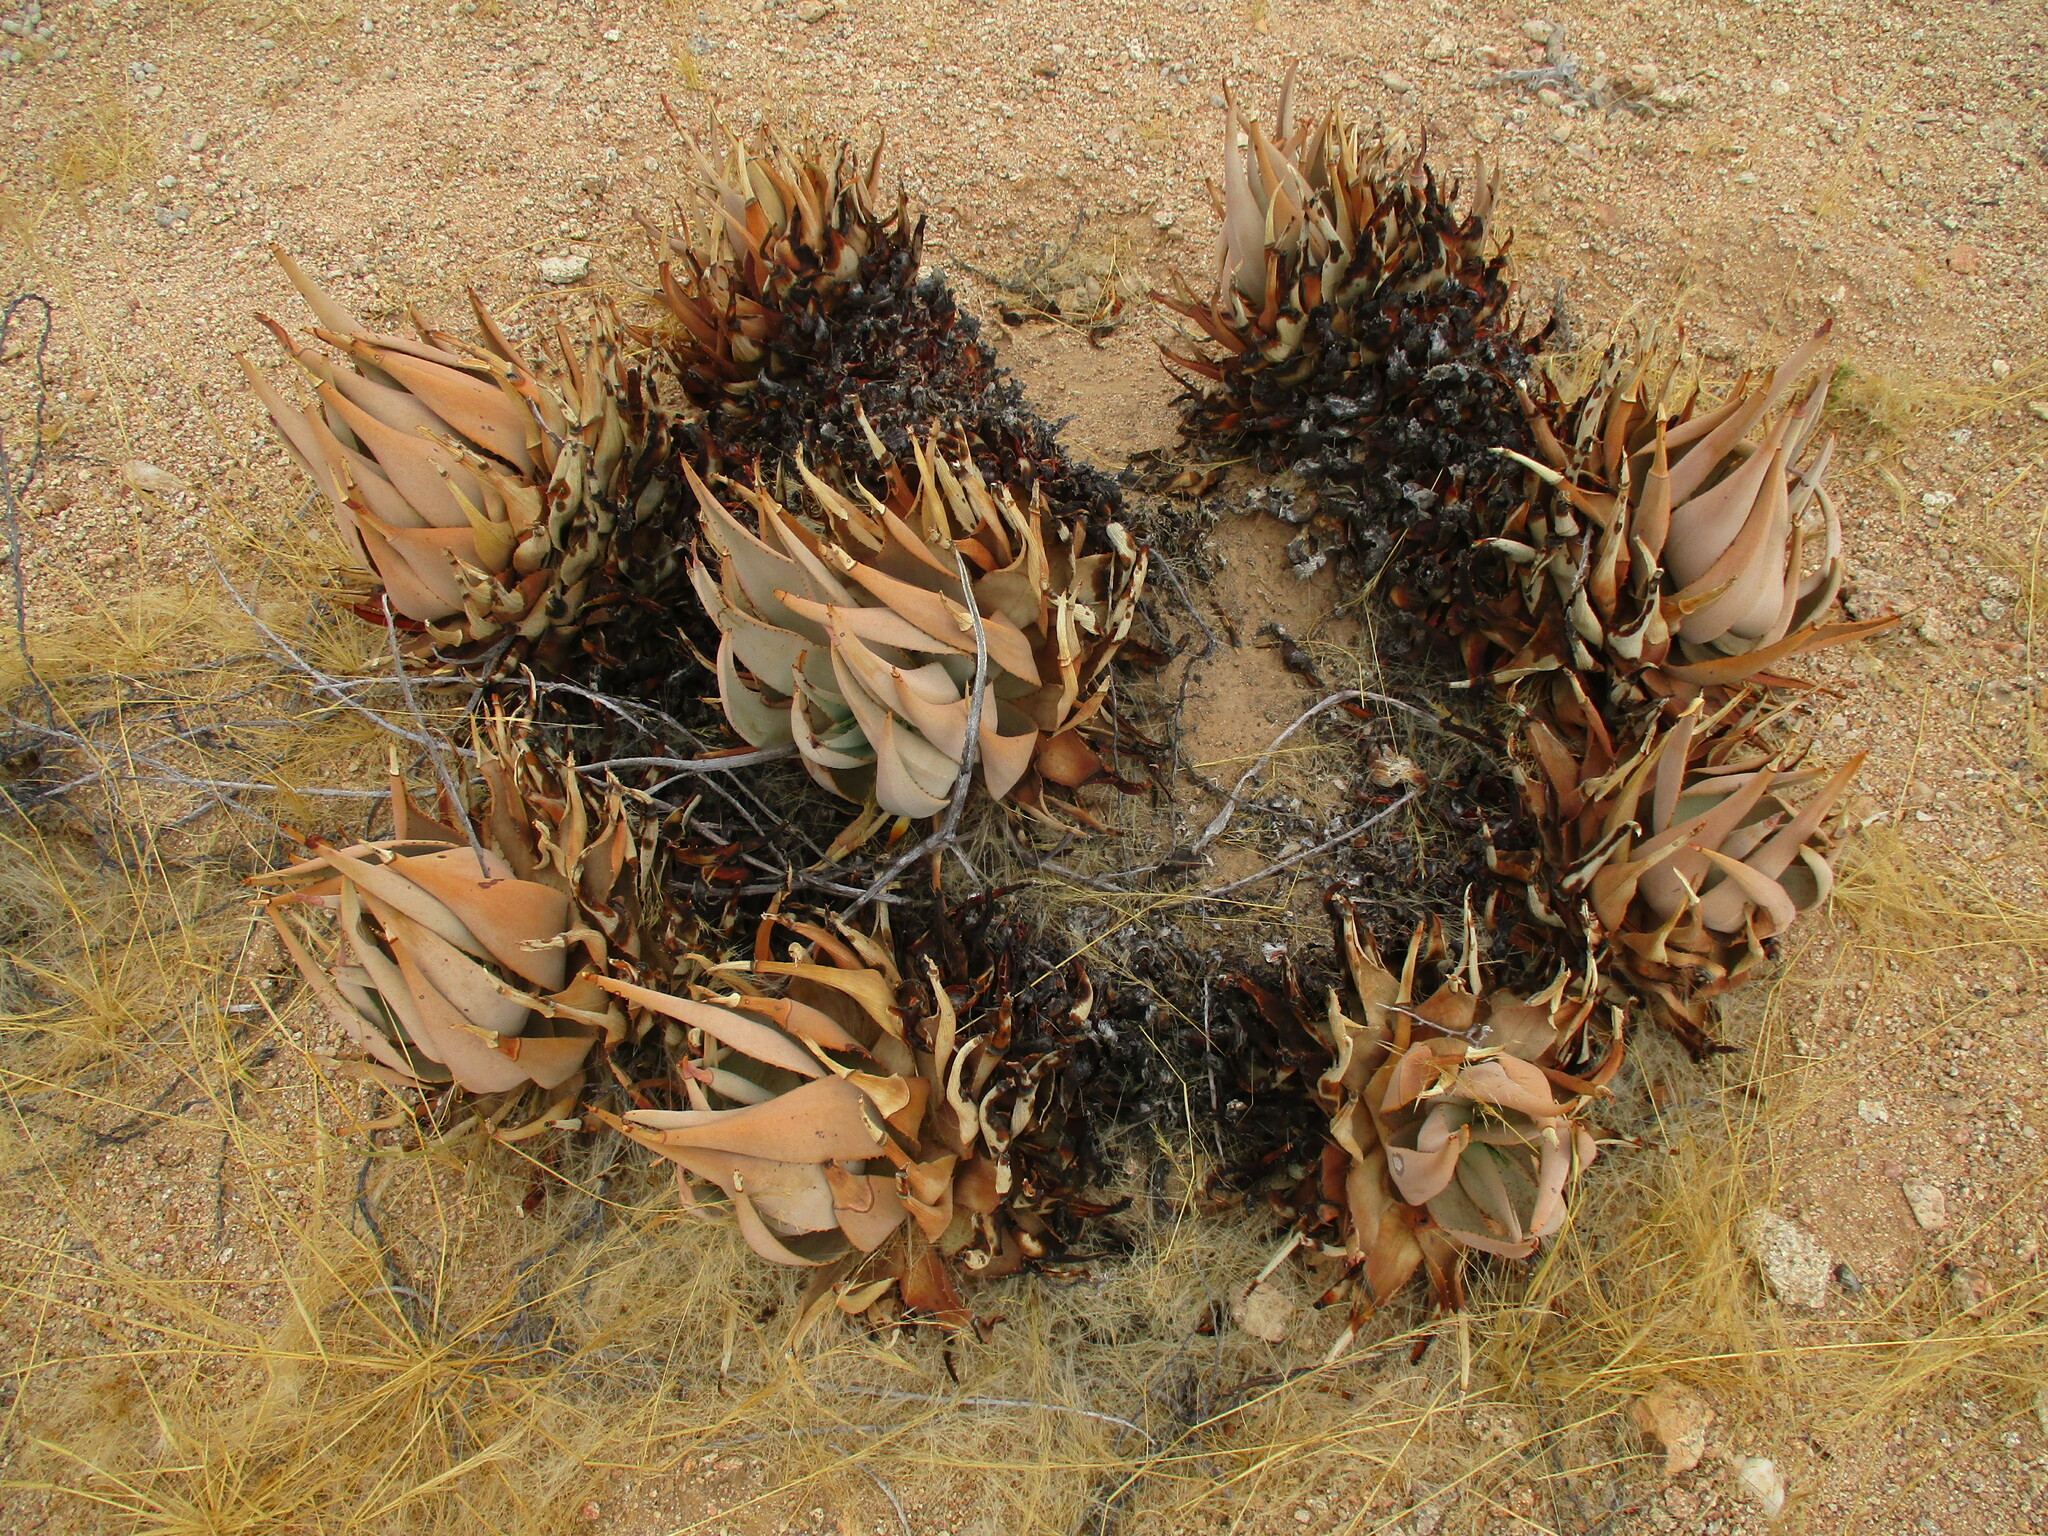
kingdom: Plantae
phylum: Tracheophyta
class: Liliopsida
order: Asparagales
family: Asphodelaceae
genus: Aloe
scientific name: Aloe asperifolia
